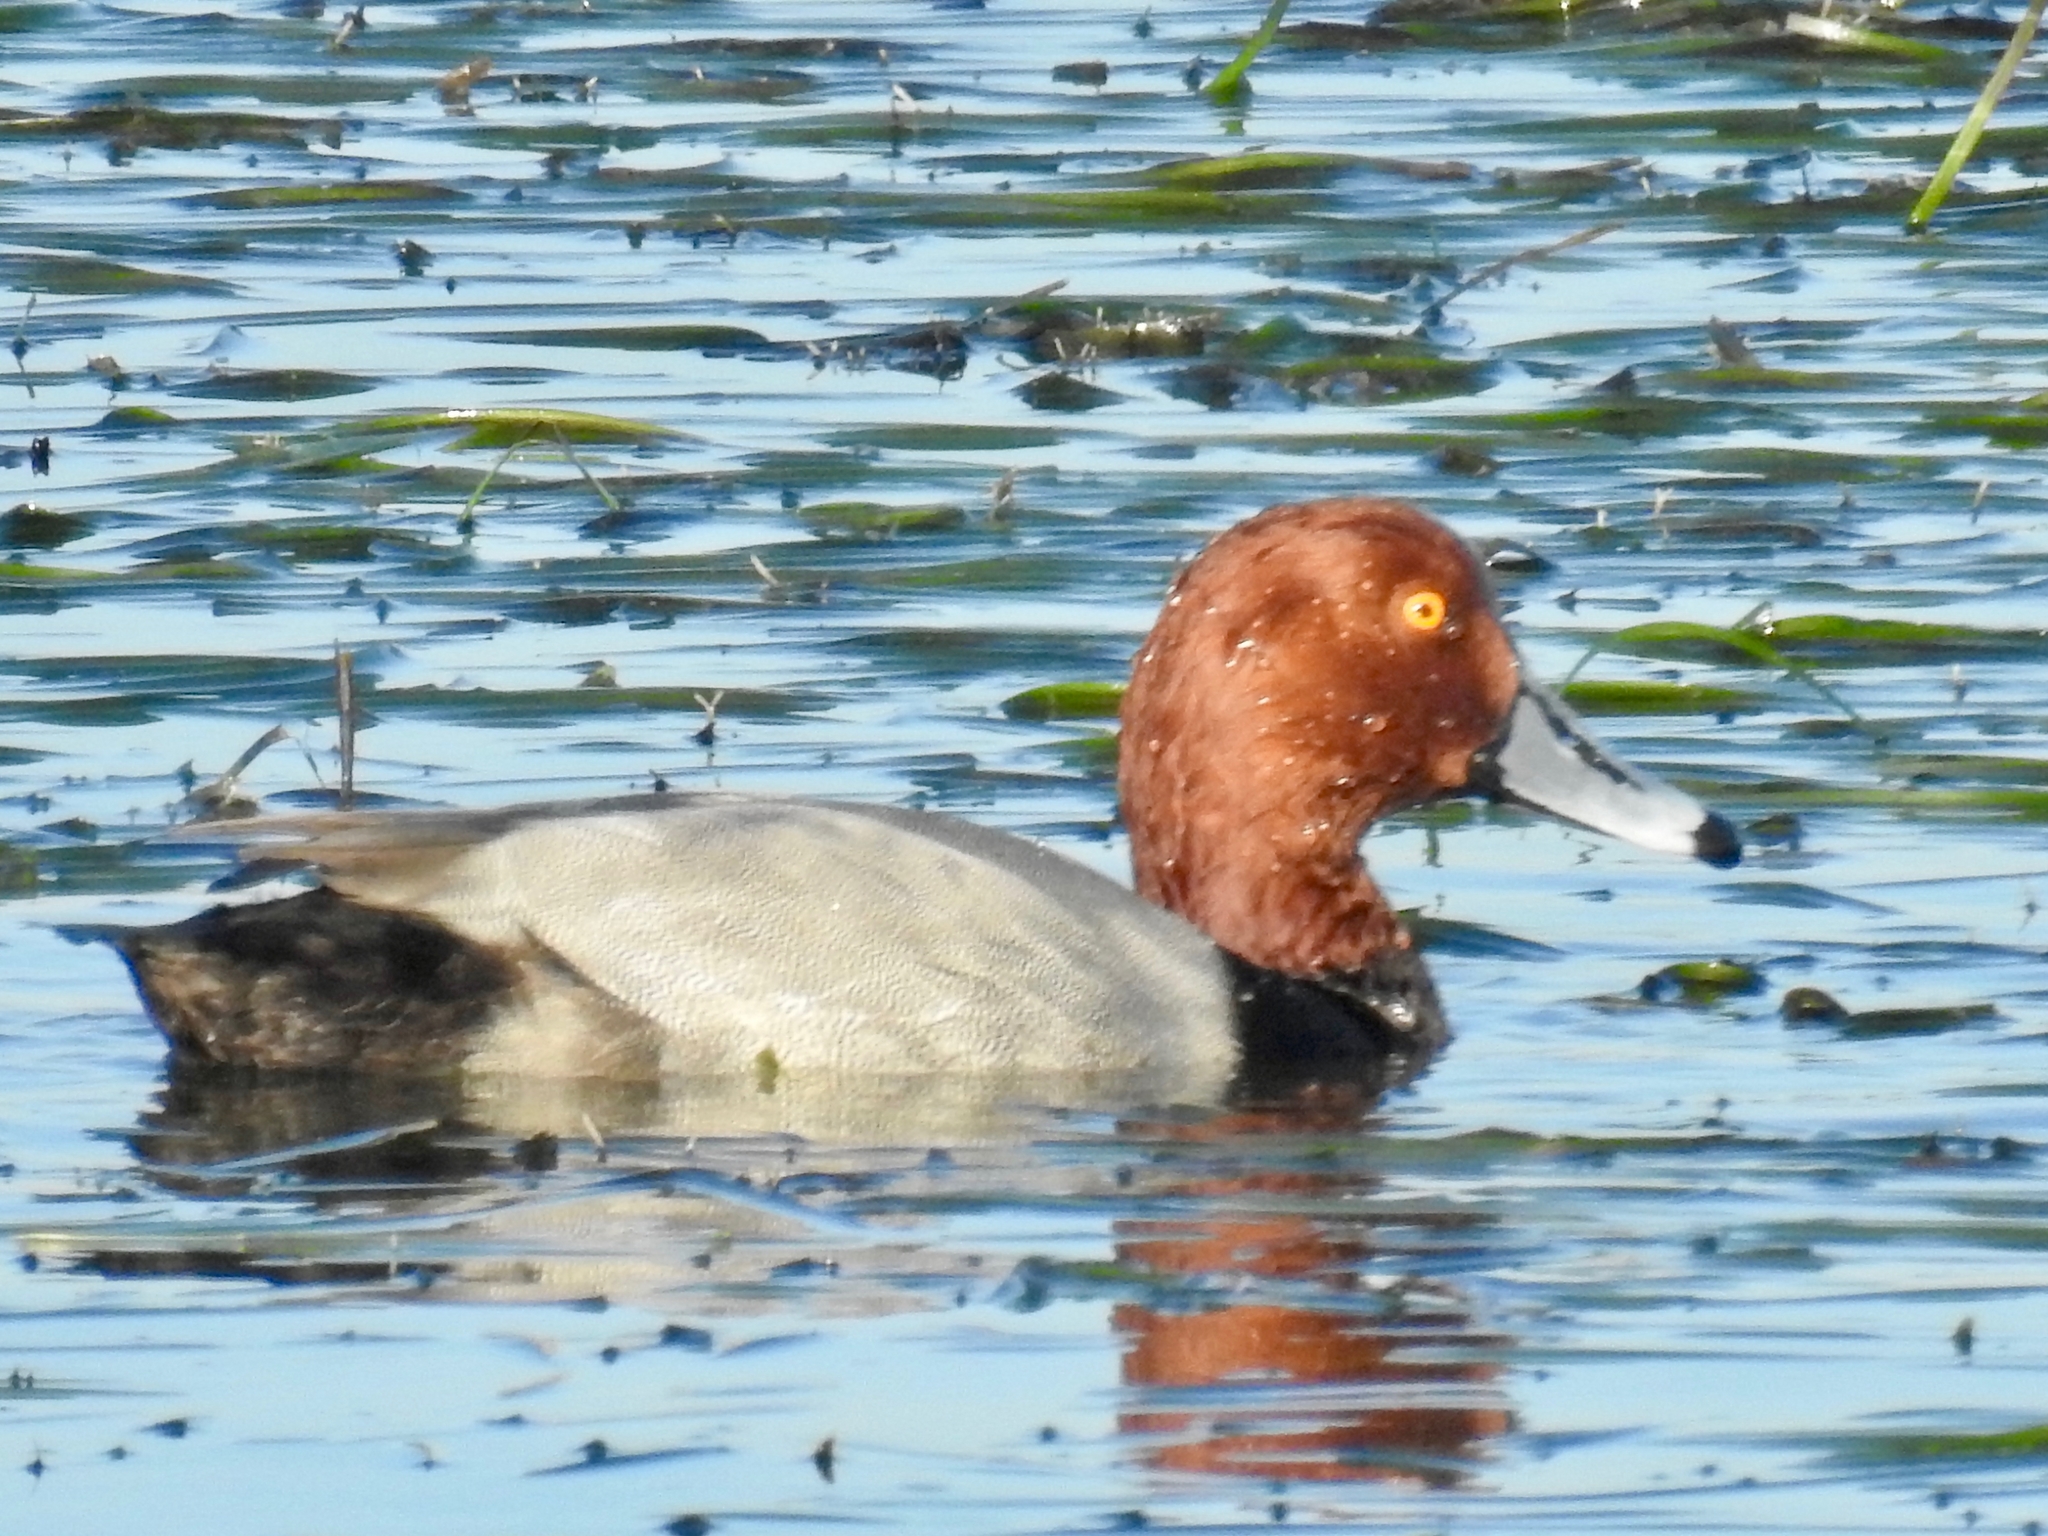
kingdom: Animalia
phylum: Chordata
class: Aves
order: Anseriformes
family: Anatidae
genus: Aythya
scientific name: Aythya americana
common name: Redhead
